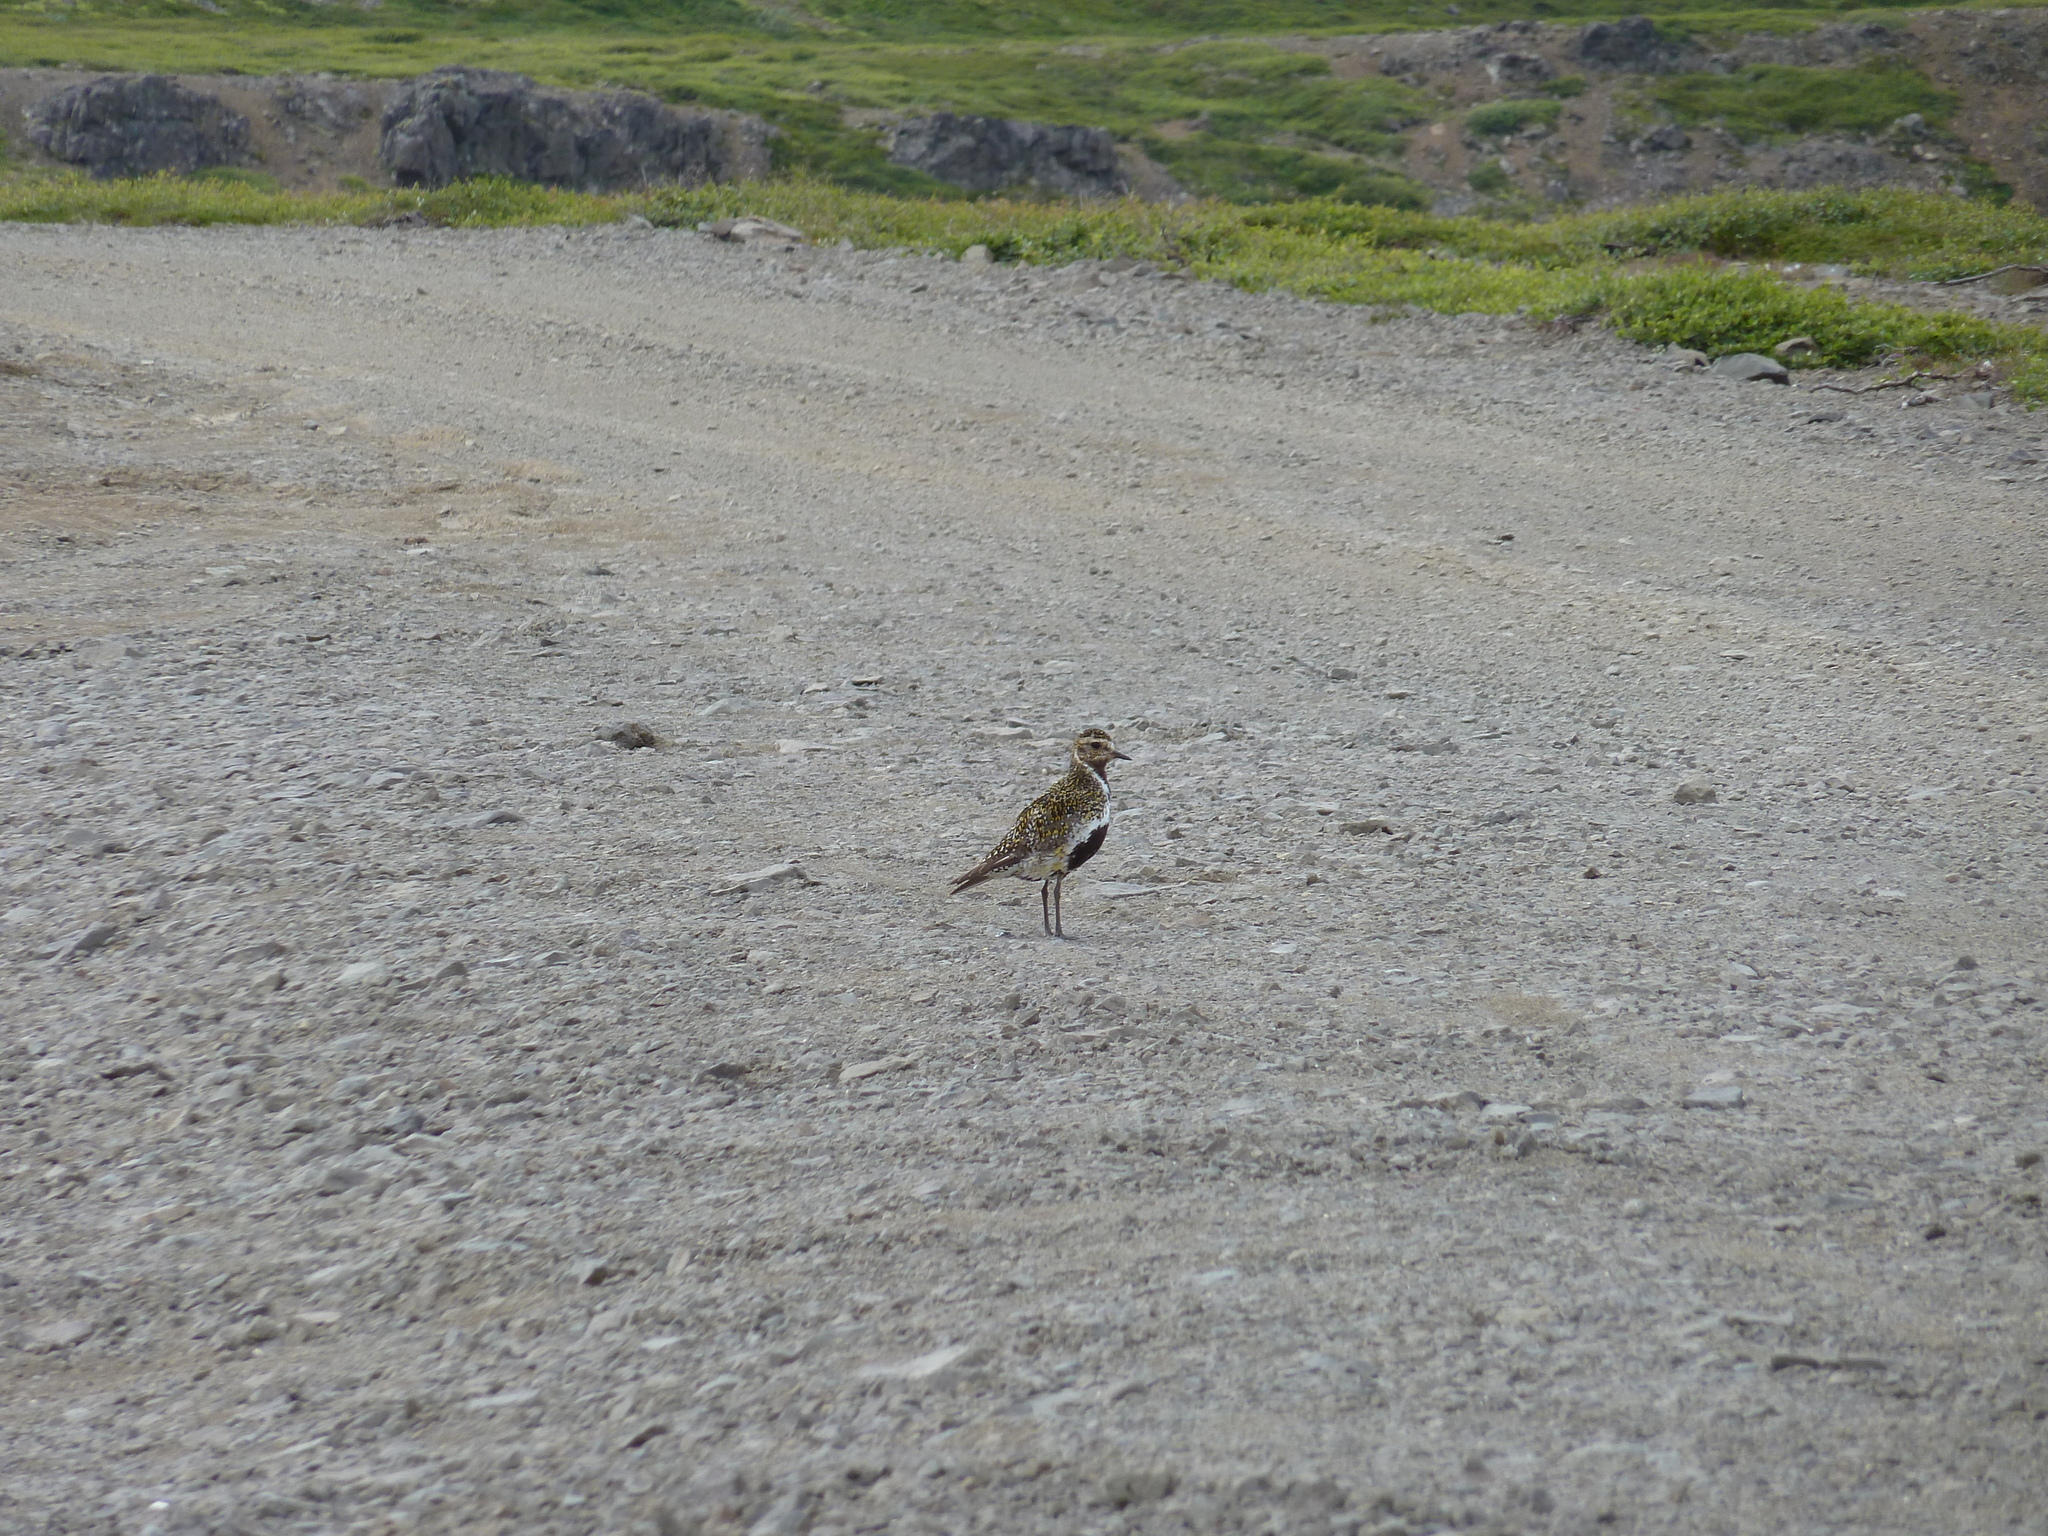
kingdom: Animalia
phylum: Chordata
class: Aves
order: Charadriiformes
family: Charadriidae
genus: Pluvialis
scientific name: Pluvialis apricaria
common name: European golden plover
